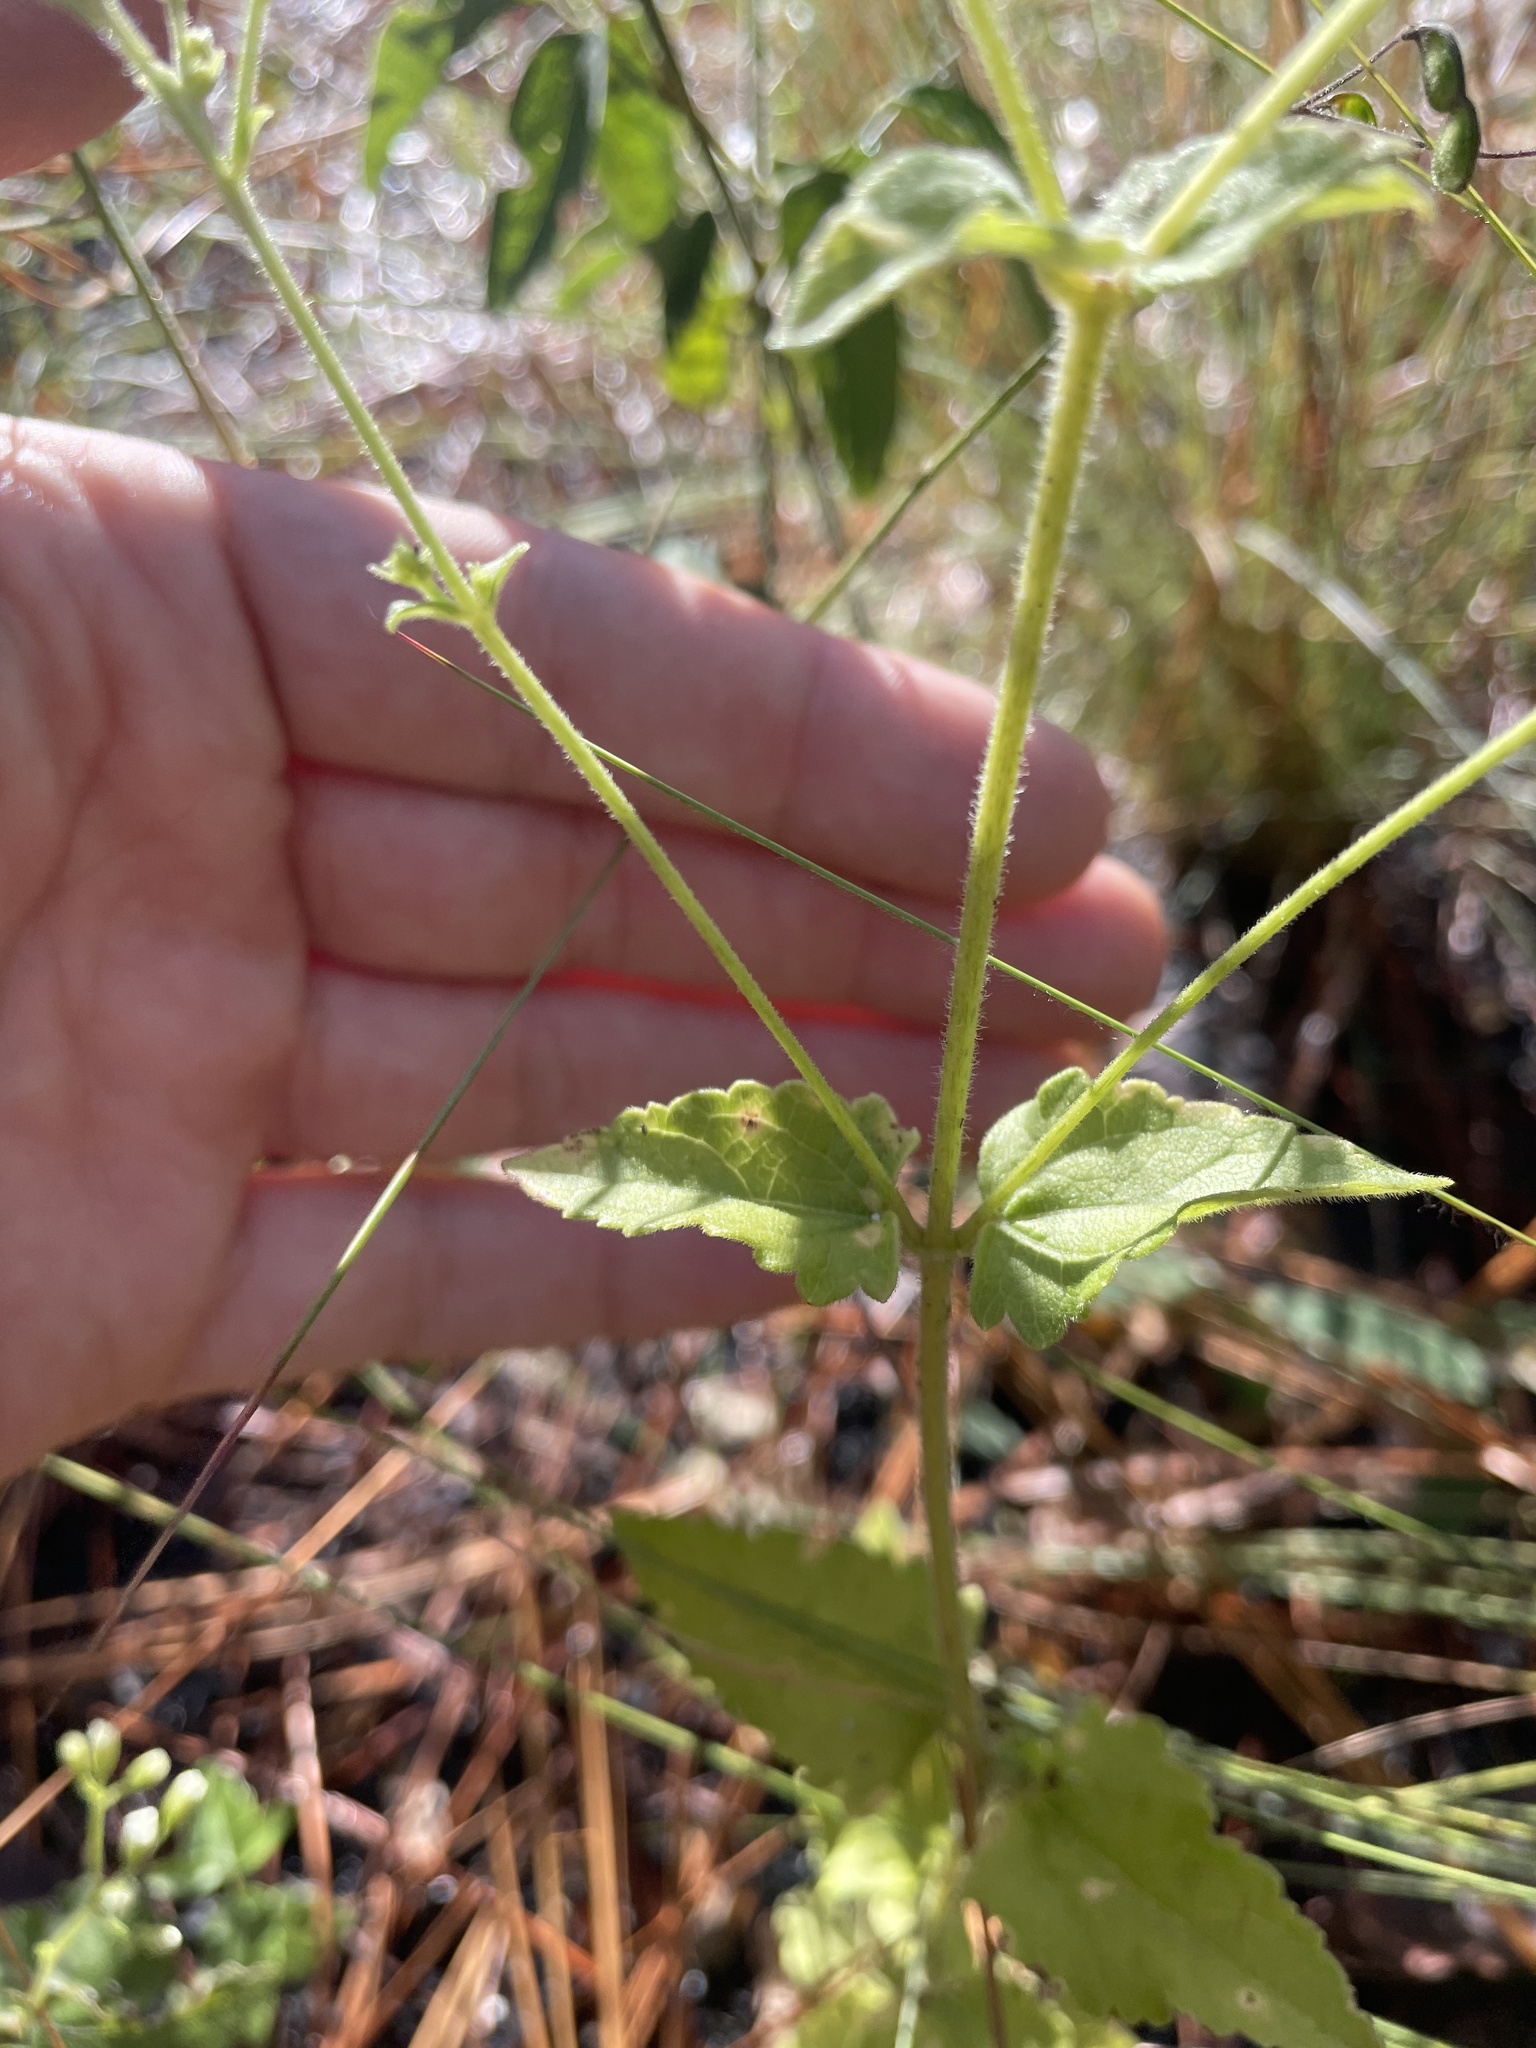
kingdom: Plantae
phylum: Tracheophyta
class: Magnoliopsida
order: Asterales
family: Asteraceae
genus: Ageratina
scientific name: Ageratina aromatica
